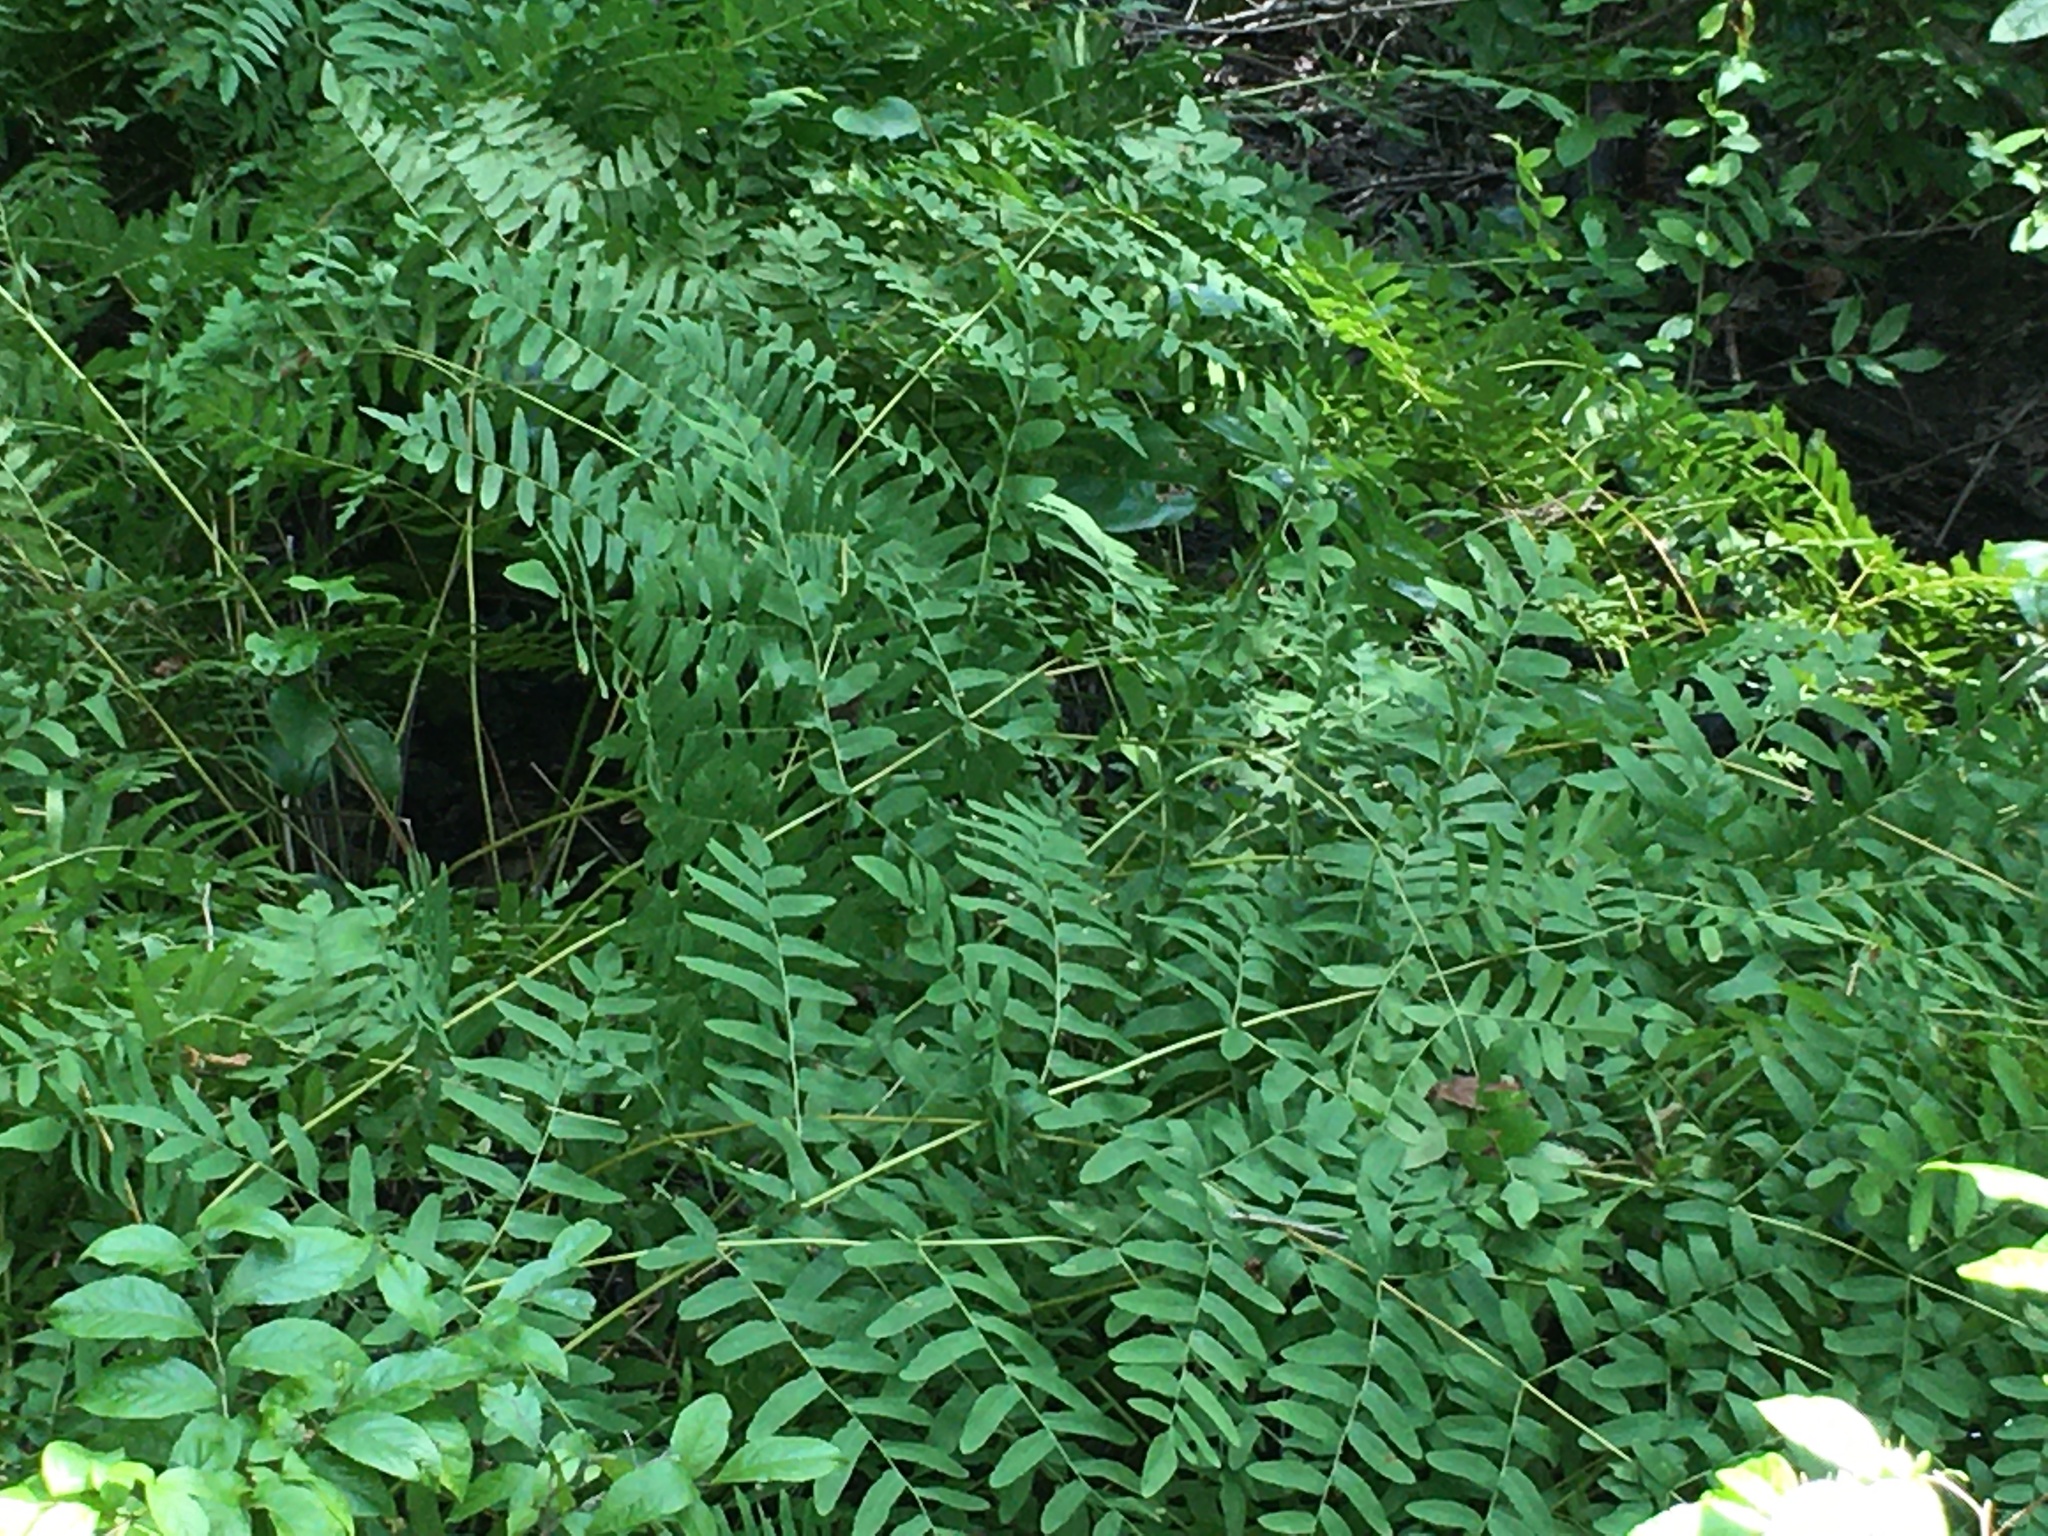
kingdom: Plantae
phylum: Tracheophyta
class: Polypodiopsida
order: Osmundales
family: Osmundaceae
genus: Osmunda
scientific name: Osmunda spectabilis
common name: American royal fern
